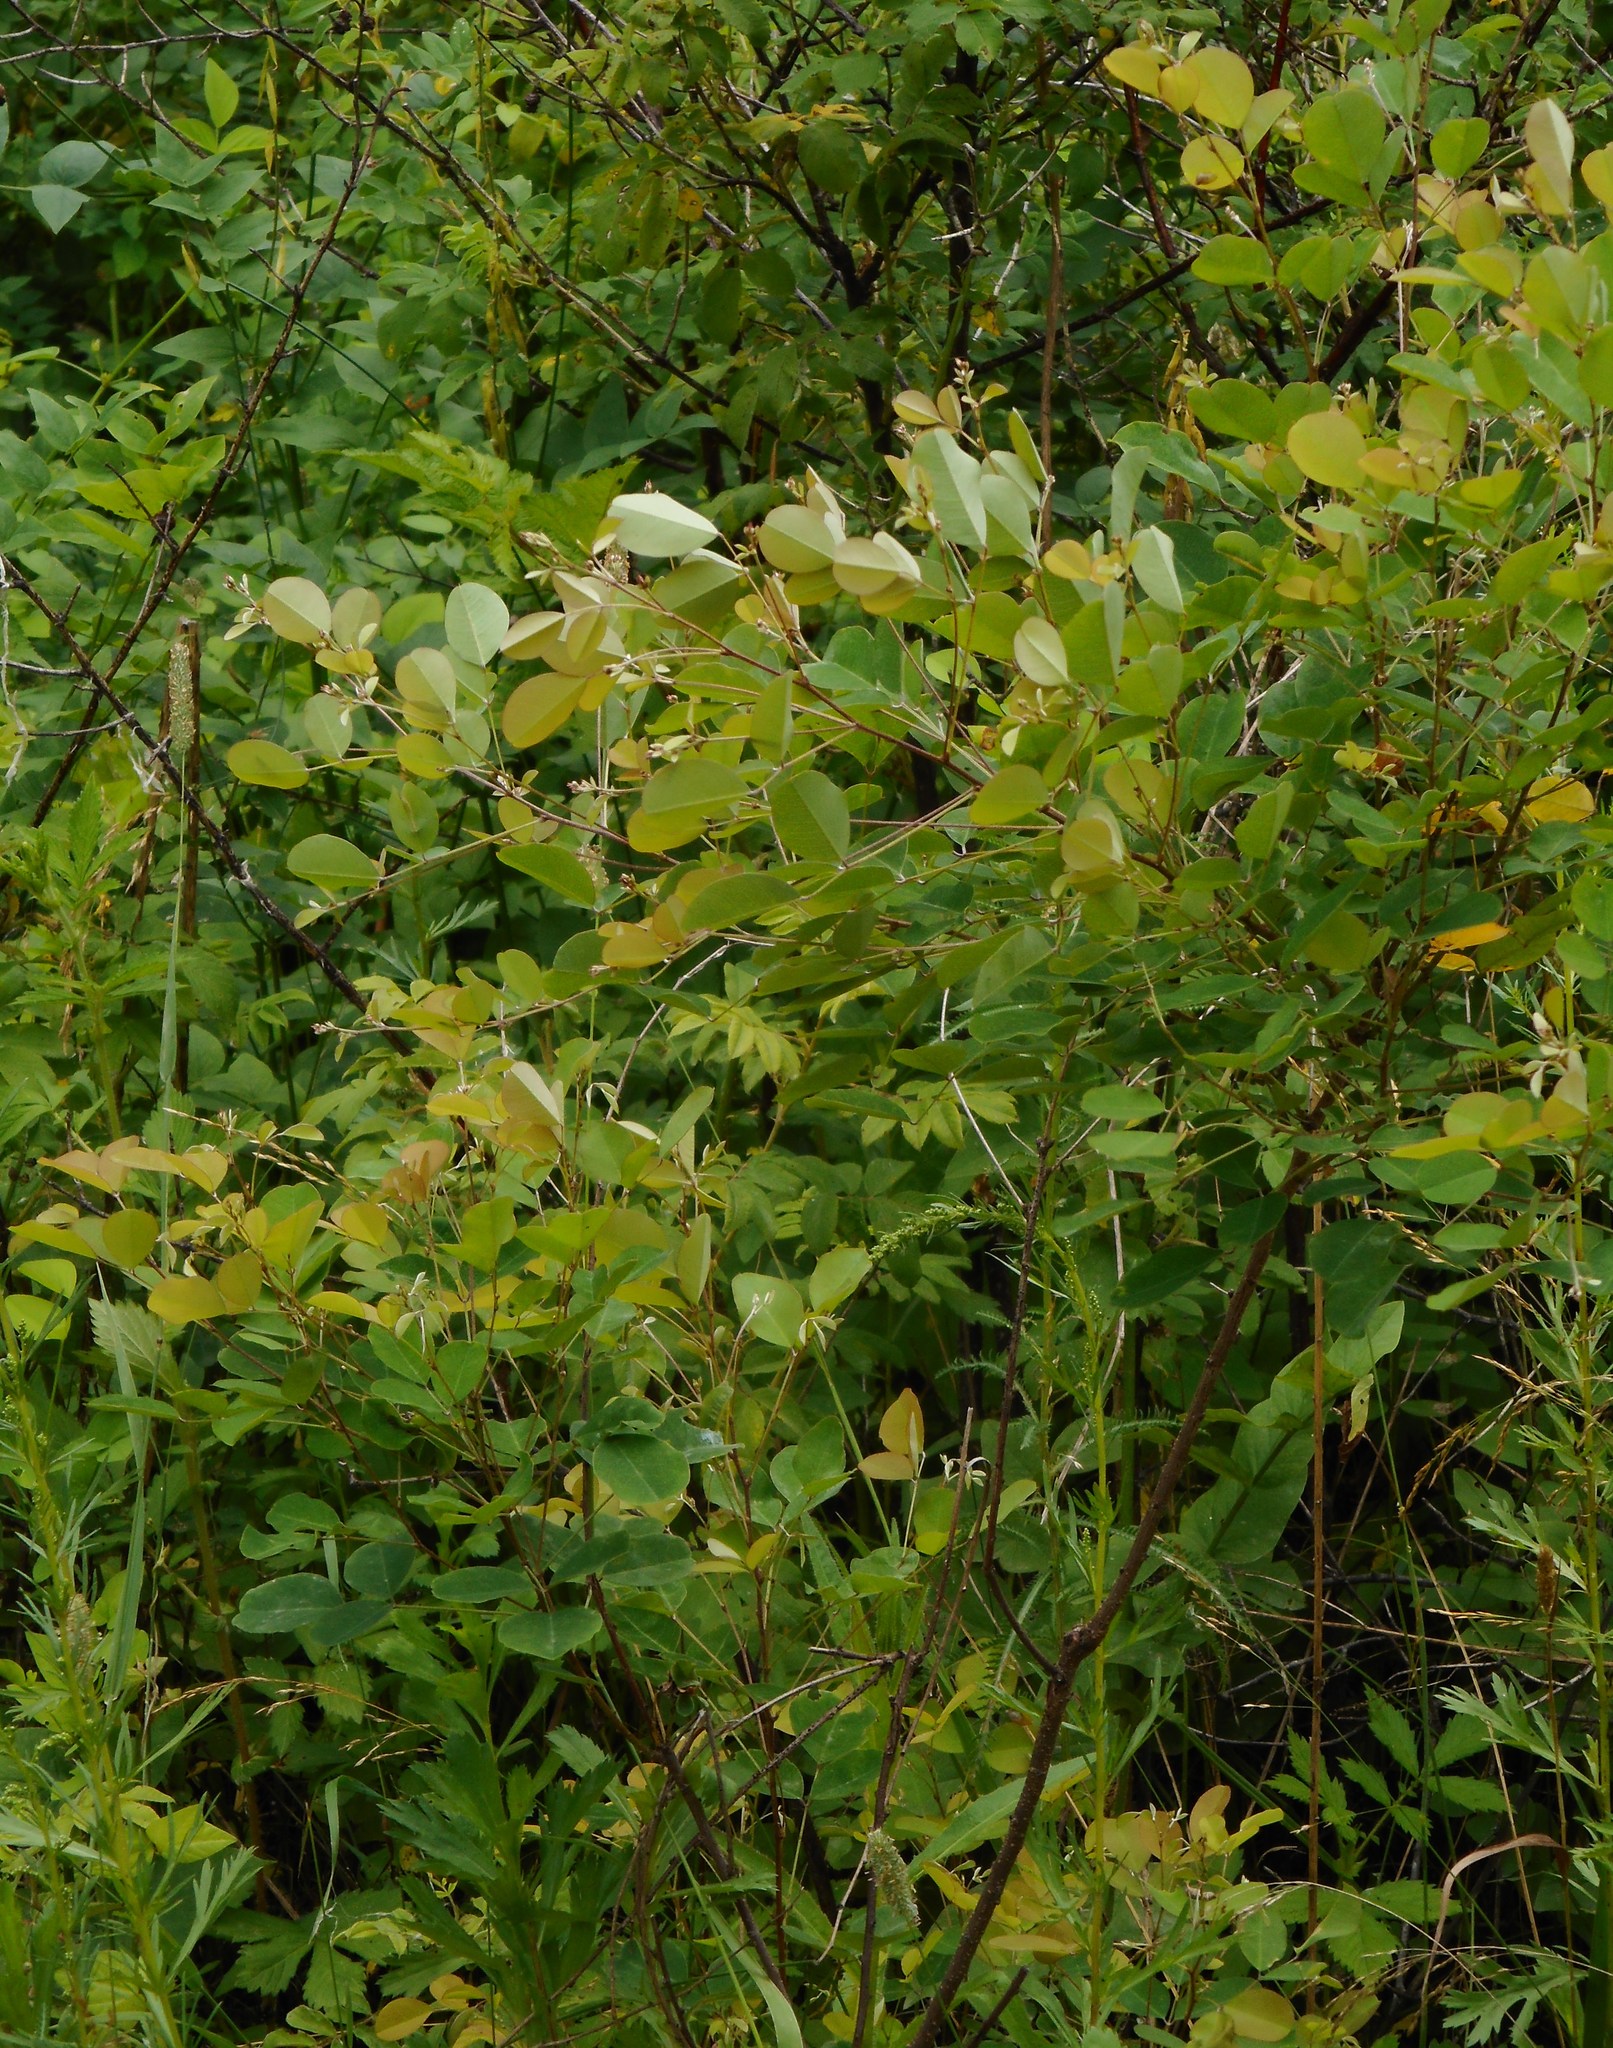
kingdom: Plantae
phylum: Tracheophyta
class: Magnoliopsida
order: Fabales
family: Fabaceae
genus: Lespedeza
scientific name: Lespedeza bicolor
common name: Shrub lespedeza
